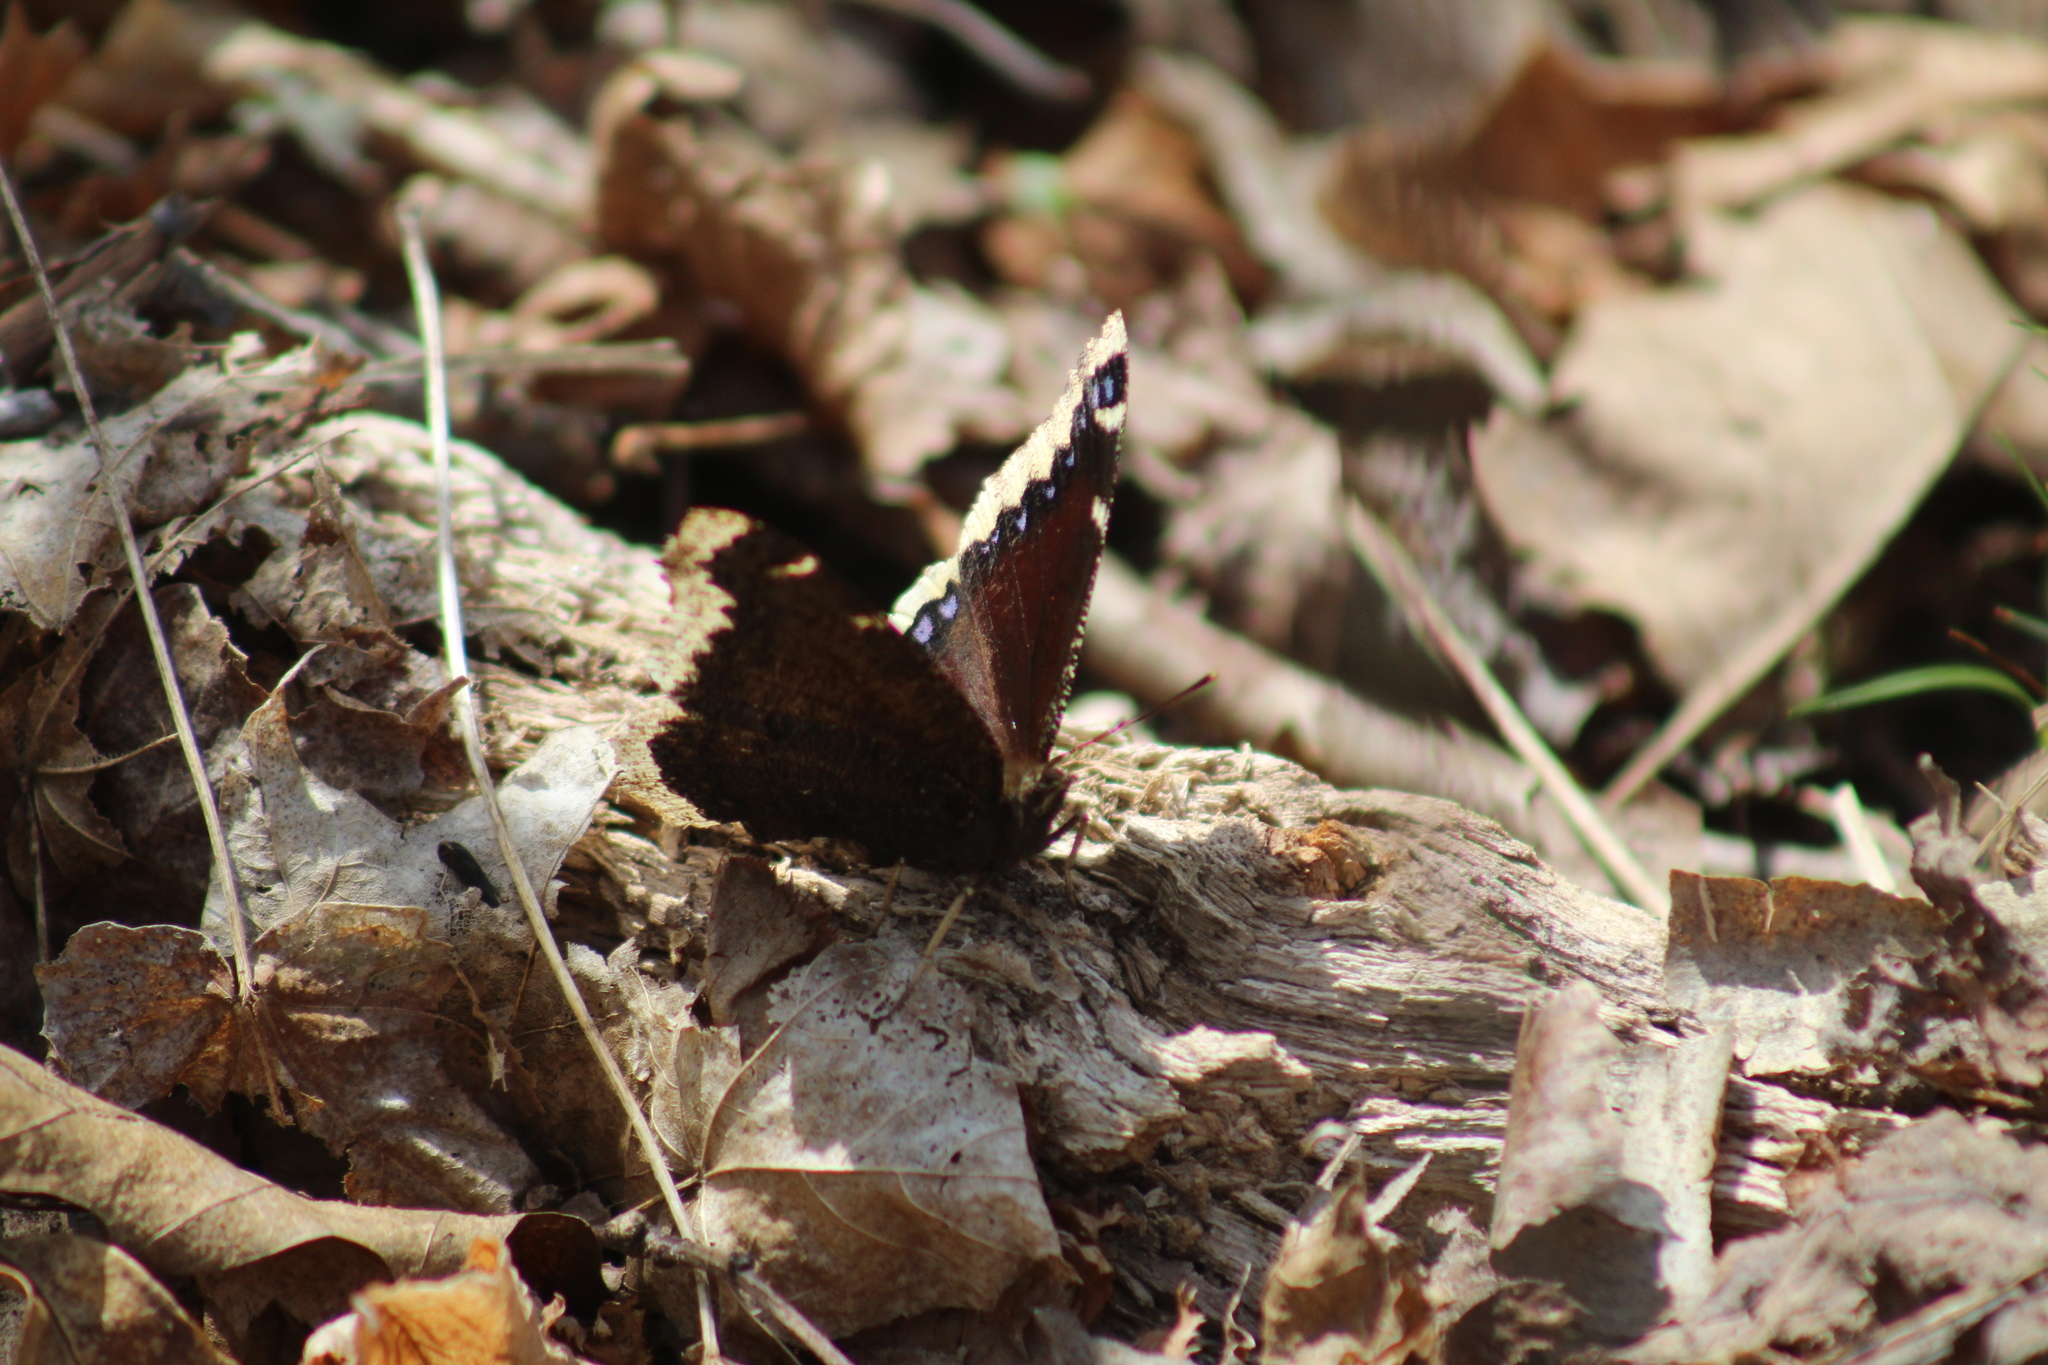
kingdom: Animalia
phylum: Arthropoda
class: Insecta
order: Lepidoptera
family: Nymphalidae
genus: Nymphalis
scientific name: Nymphalis antiopa
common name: Camberwell beauty
